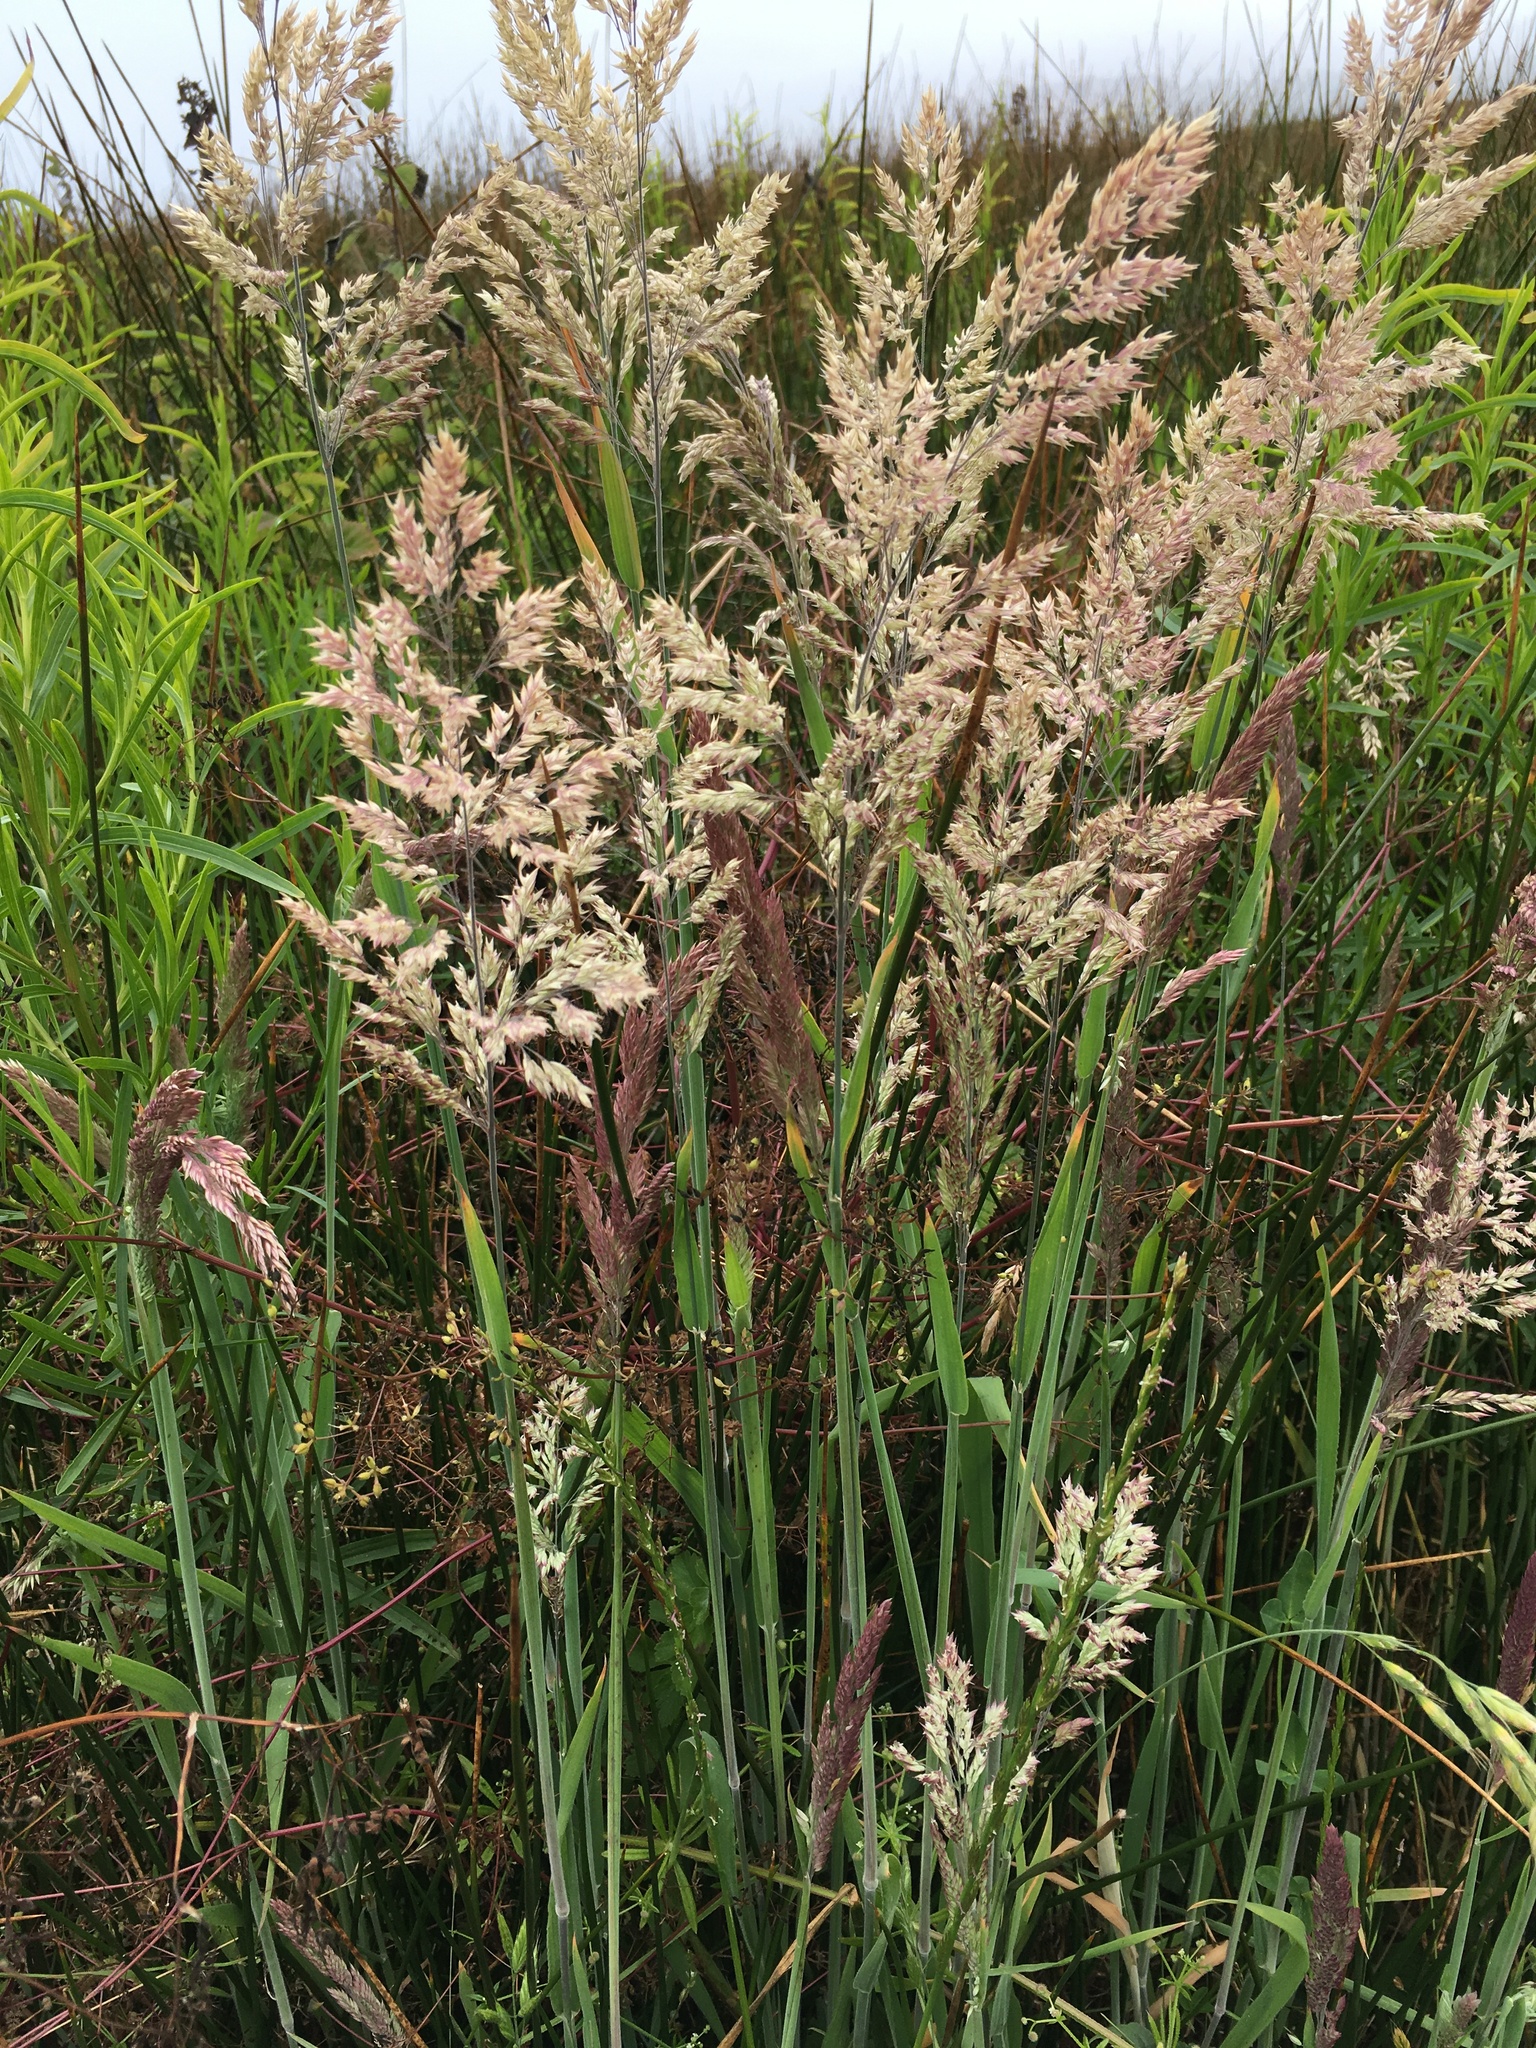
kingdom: Plantae
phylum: Tracheophyta
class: Liliopsida
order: Poales
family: Poaceae
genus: Holcus
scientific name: Holcus lanatus
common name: Yorkshire-fog
